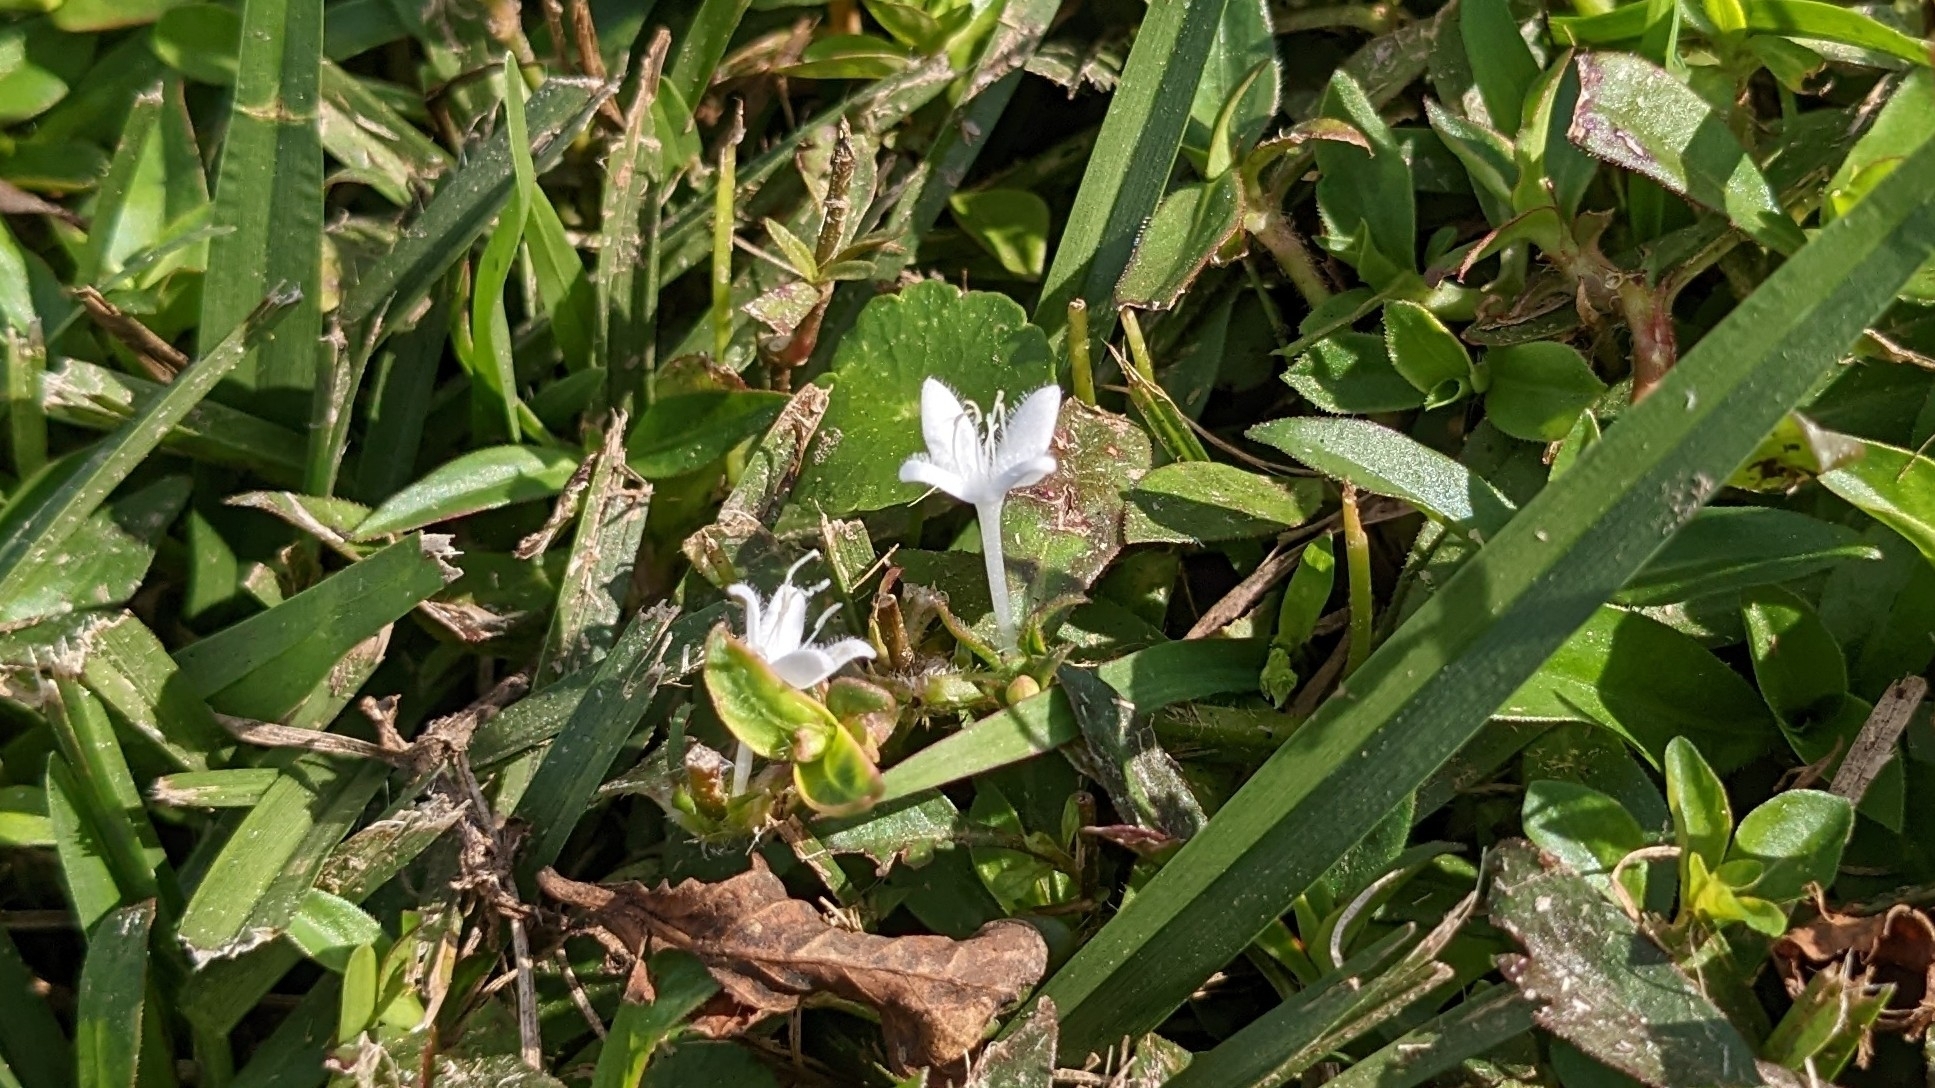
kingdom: Plantae
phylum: Tracheophyta
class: Magnoliopsida
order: Gentianales
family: Rubiaceae
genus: Diodia
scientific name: Diodia virginiana
